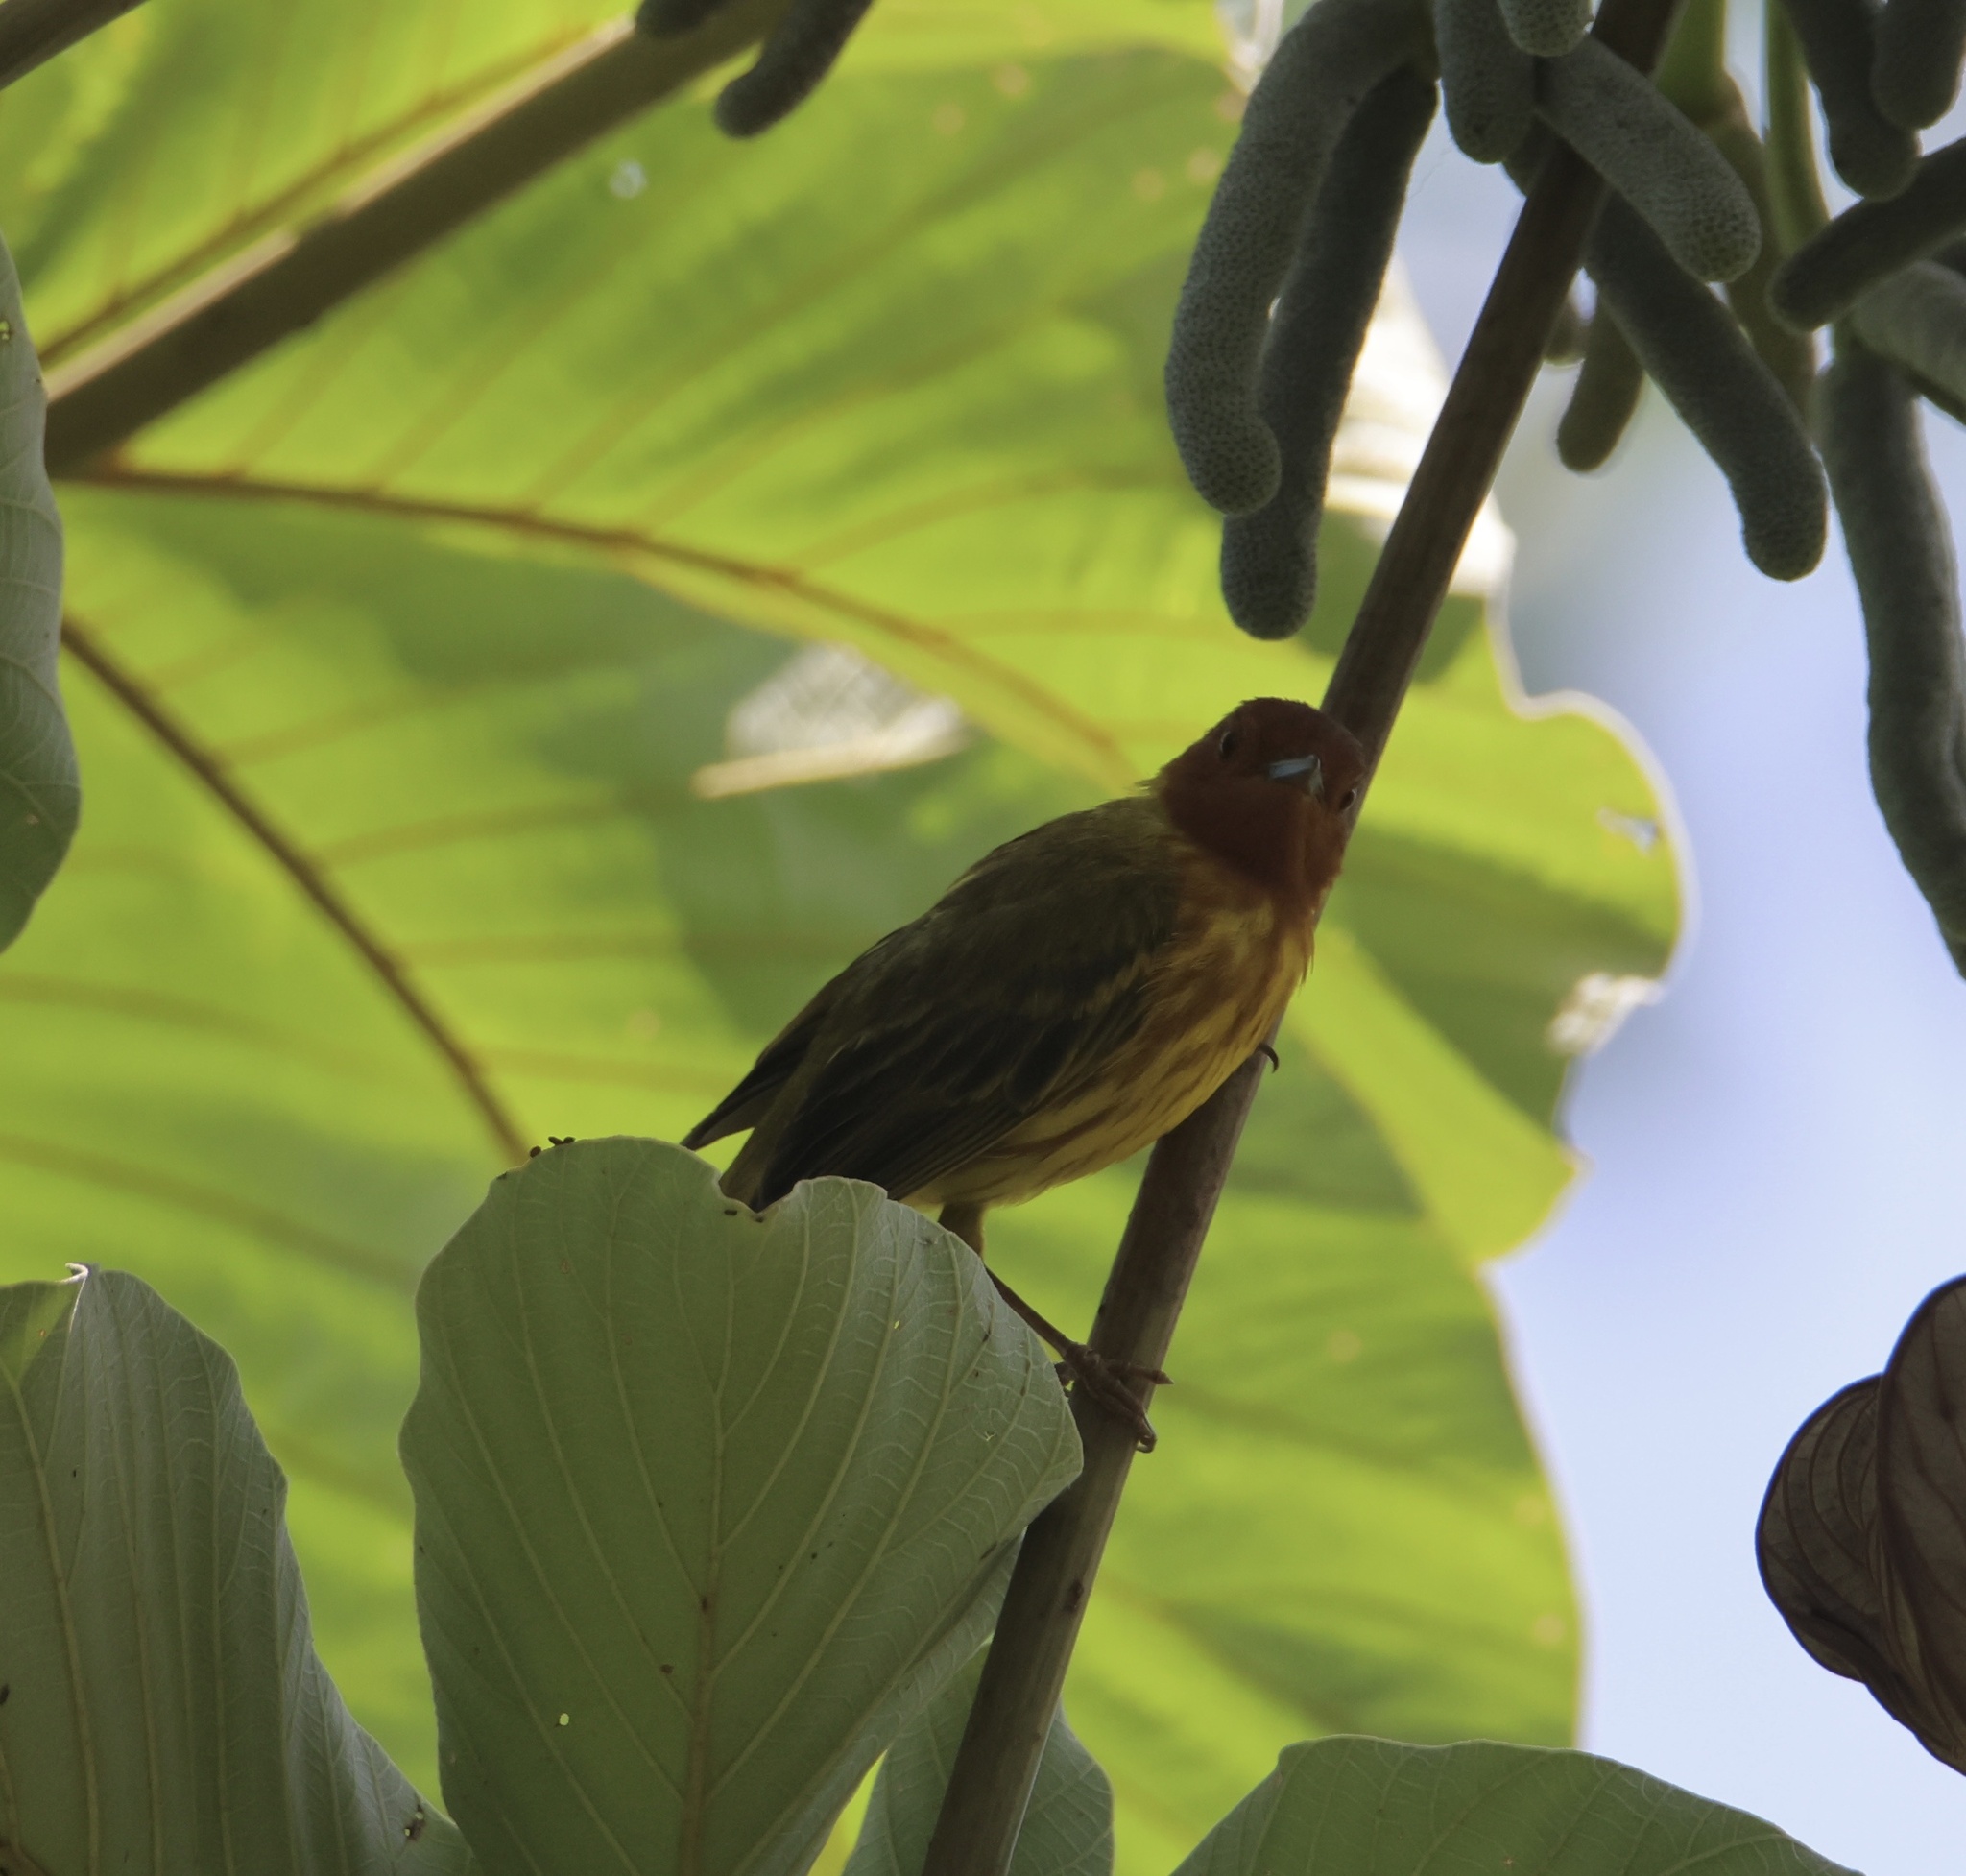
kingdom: Animalia
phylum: Chordata
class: Aves
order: Passeriformes
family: Parulidae
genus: Setophaga
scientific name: Setophaga petechia
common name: Yellow warbler
